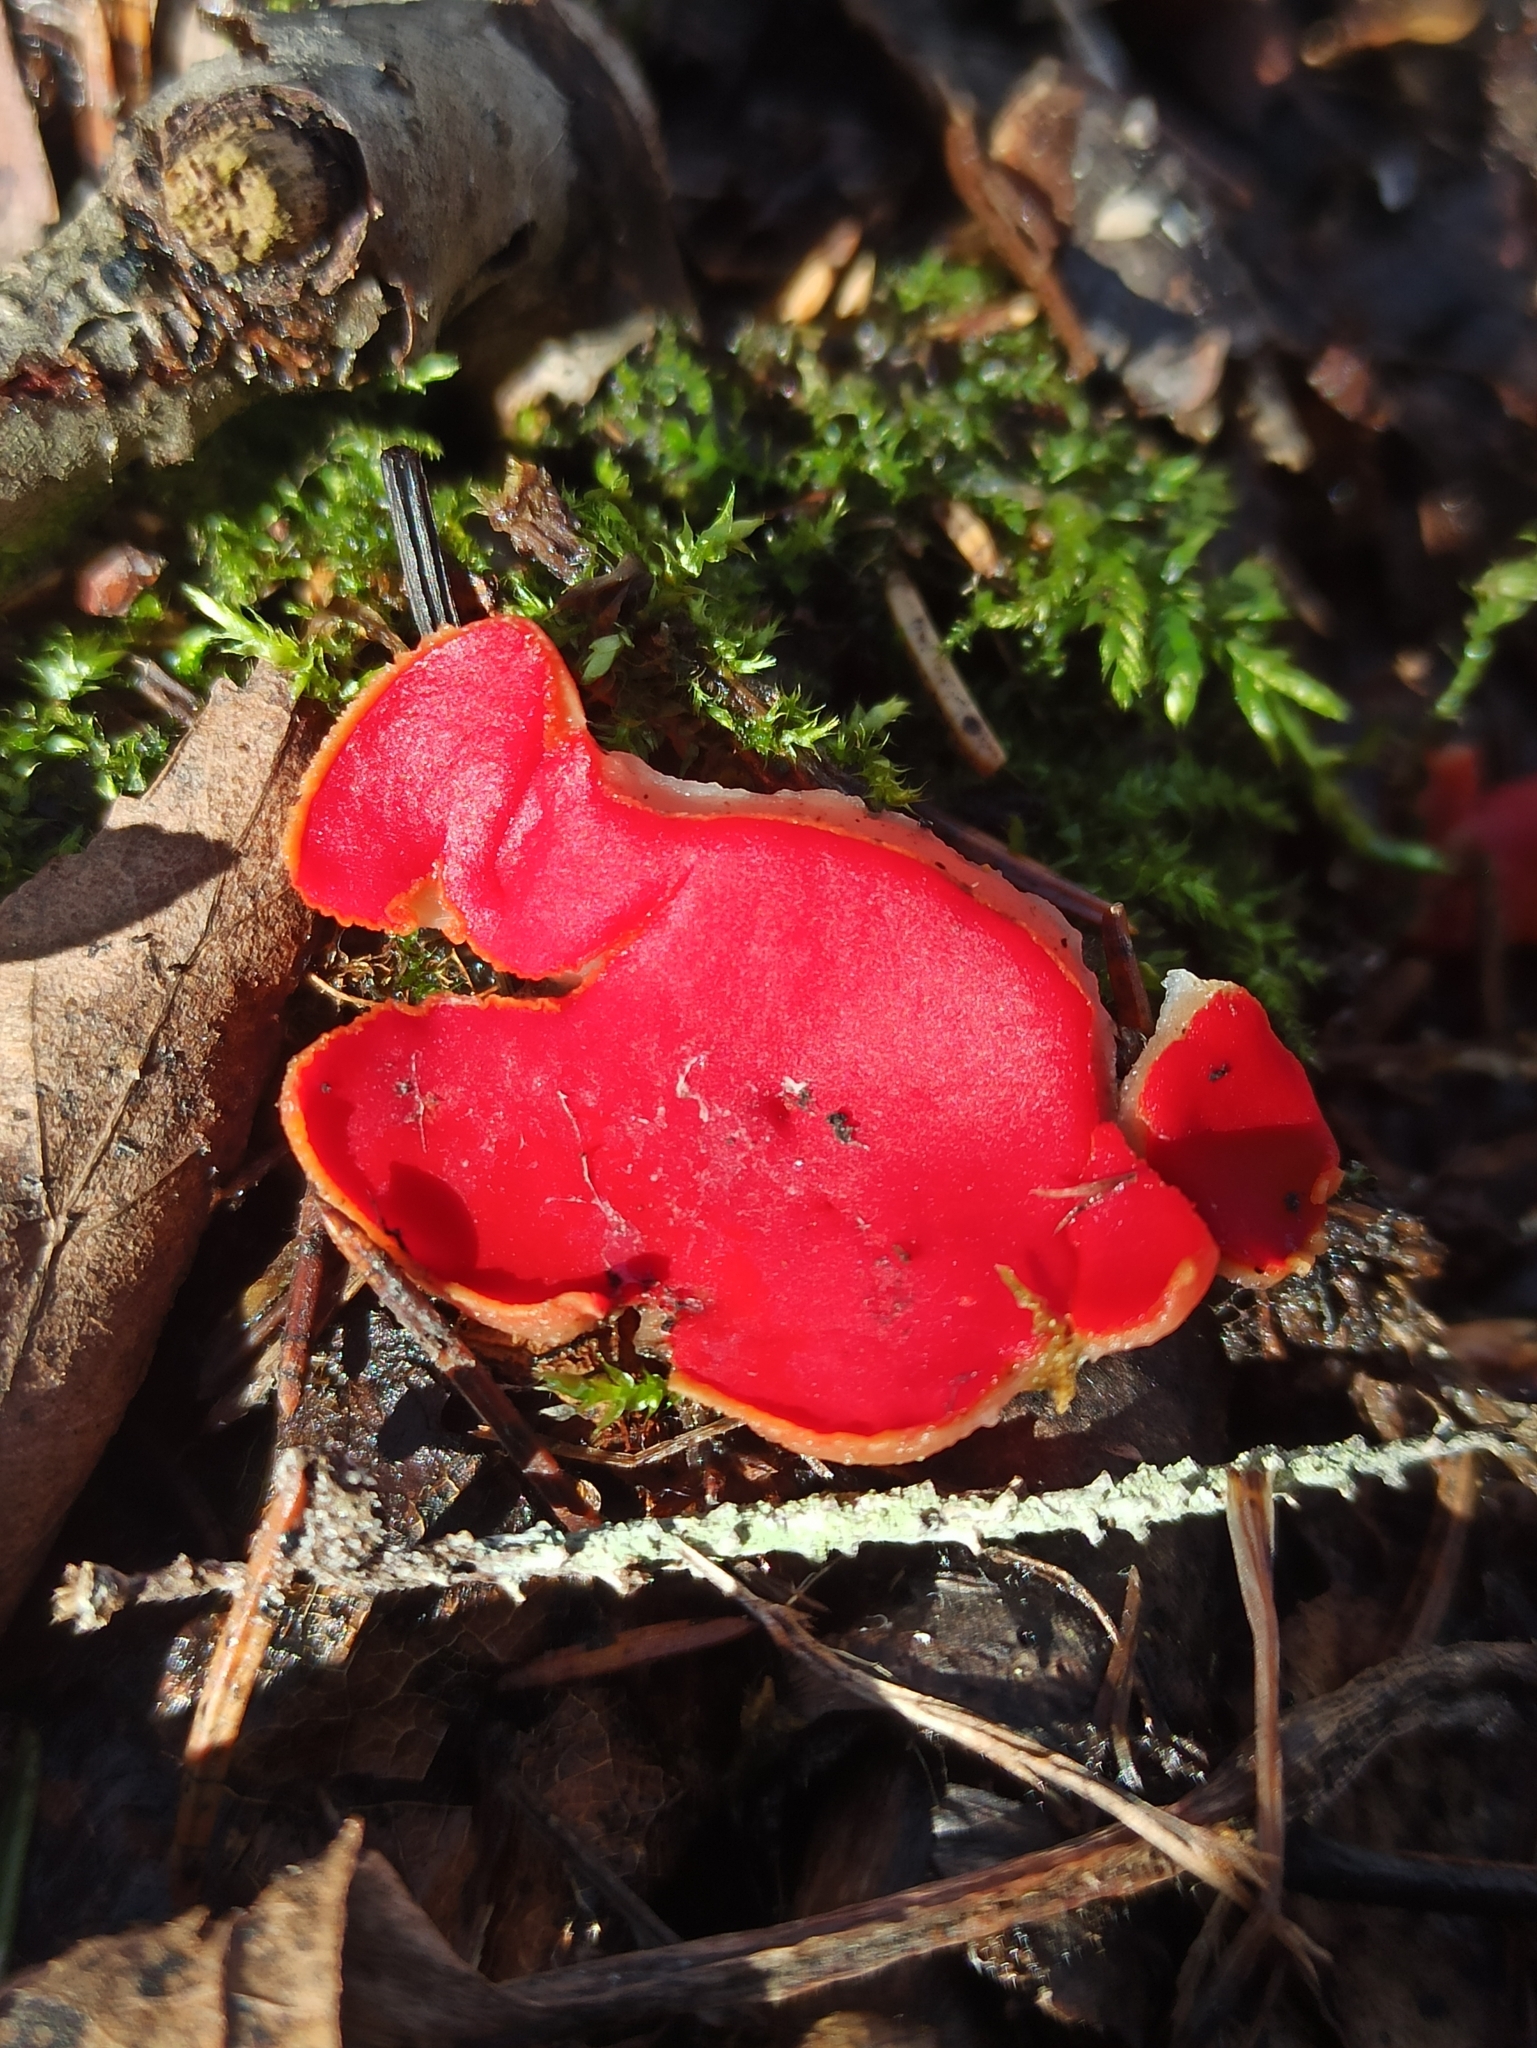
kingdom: Fungi
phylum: Ascomycota
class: Pezizomycetes
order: Pezizales
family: Sarcoscyphaceae
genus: Sarcoscypha
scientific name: Sarcoscypha austriaca
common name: Scarlet elfcup
